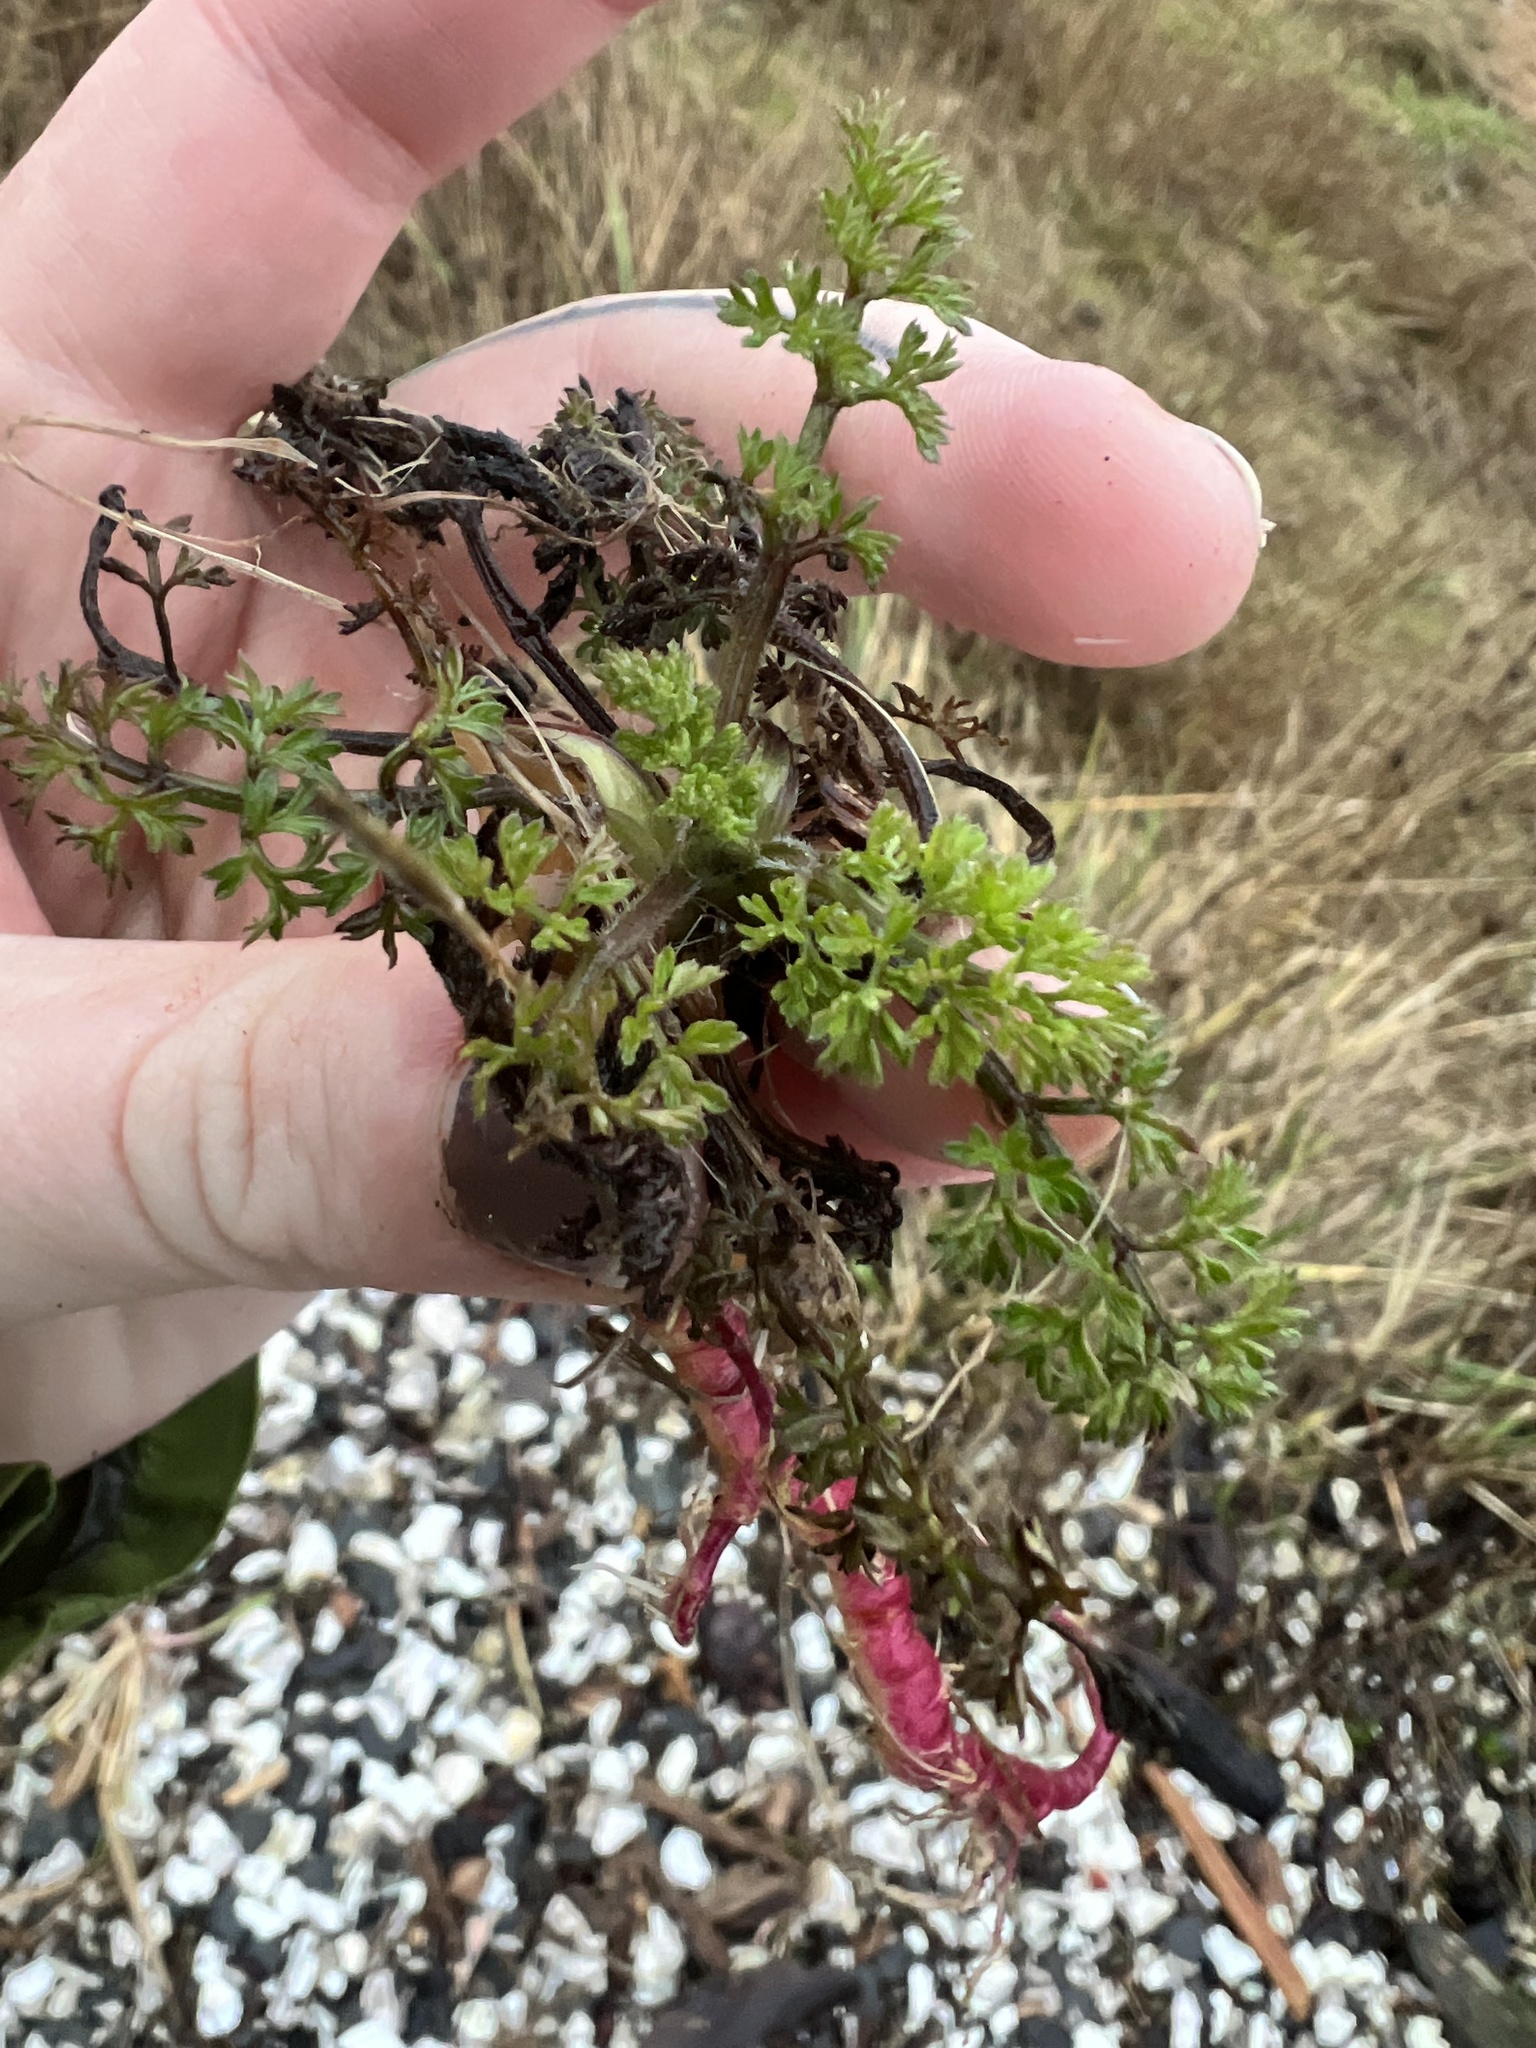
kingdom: Plantae
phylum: Tracheophyta
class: Magnoliopsida
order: Apiales
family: Apiaceae
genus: Daucus
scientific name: Daucus carota
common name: Wild carrot
